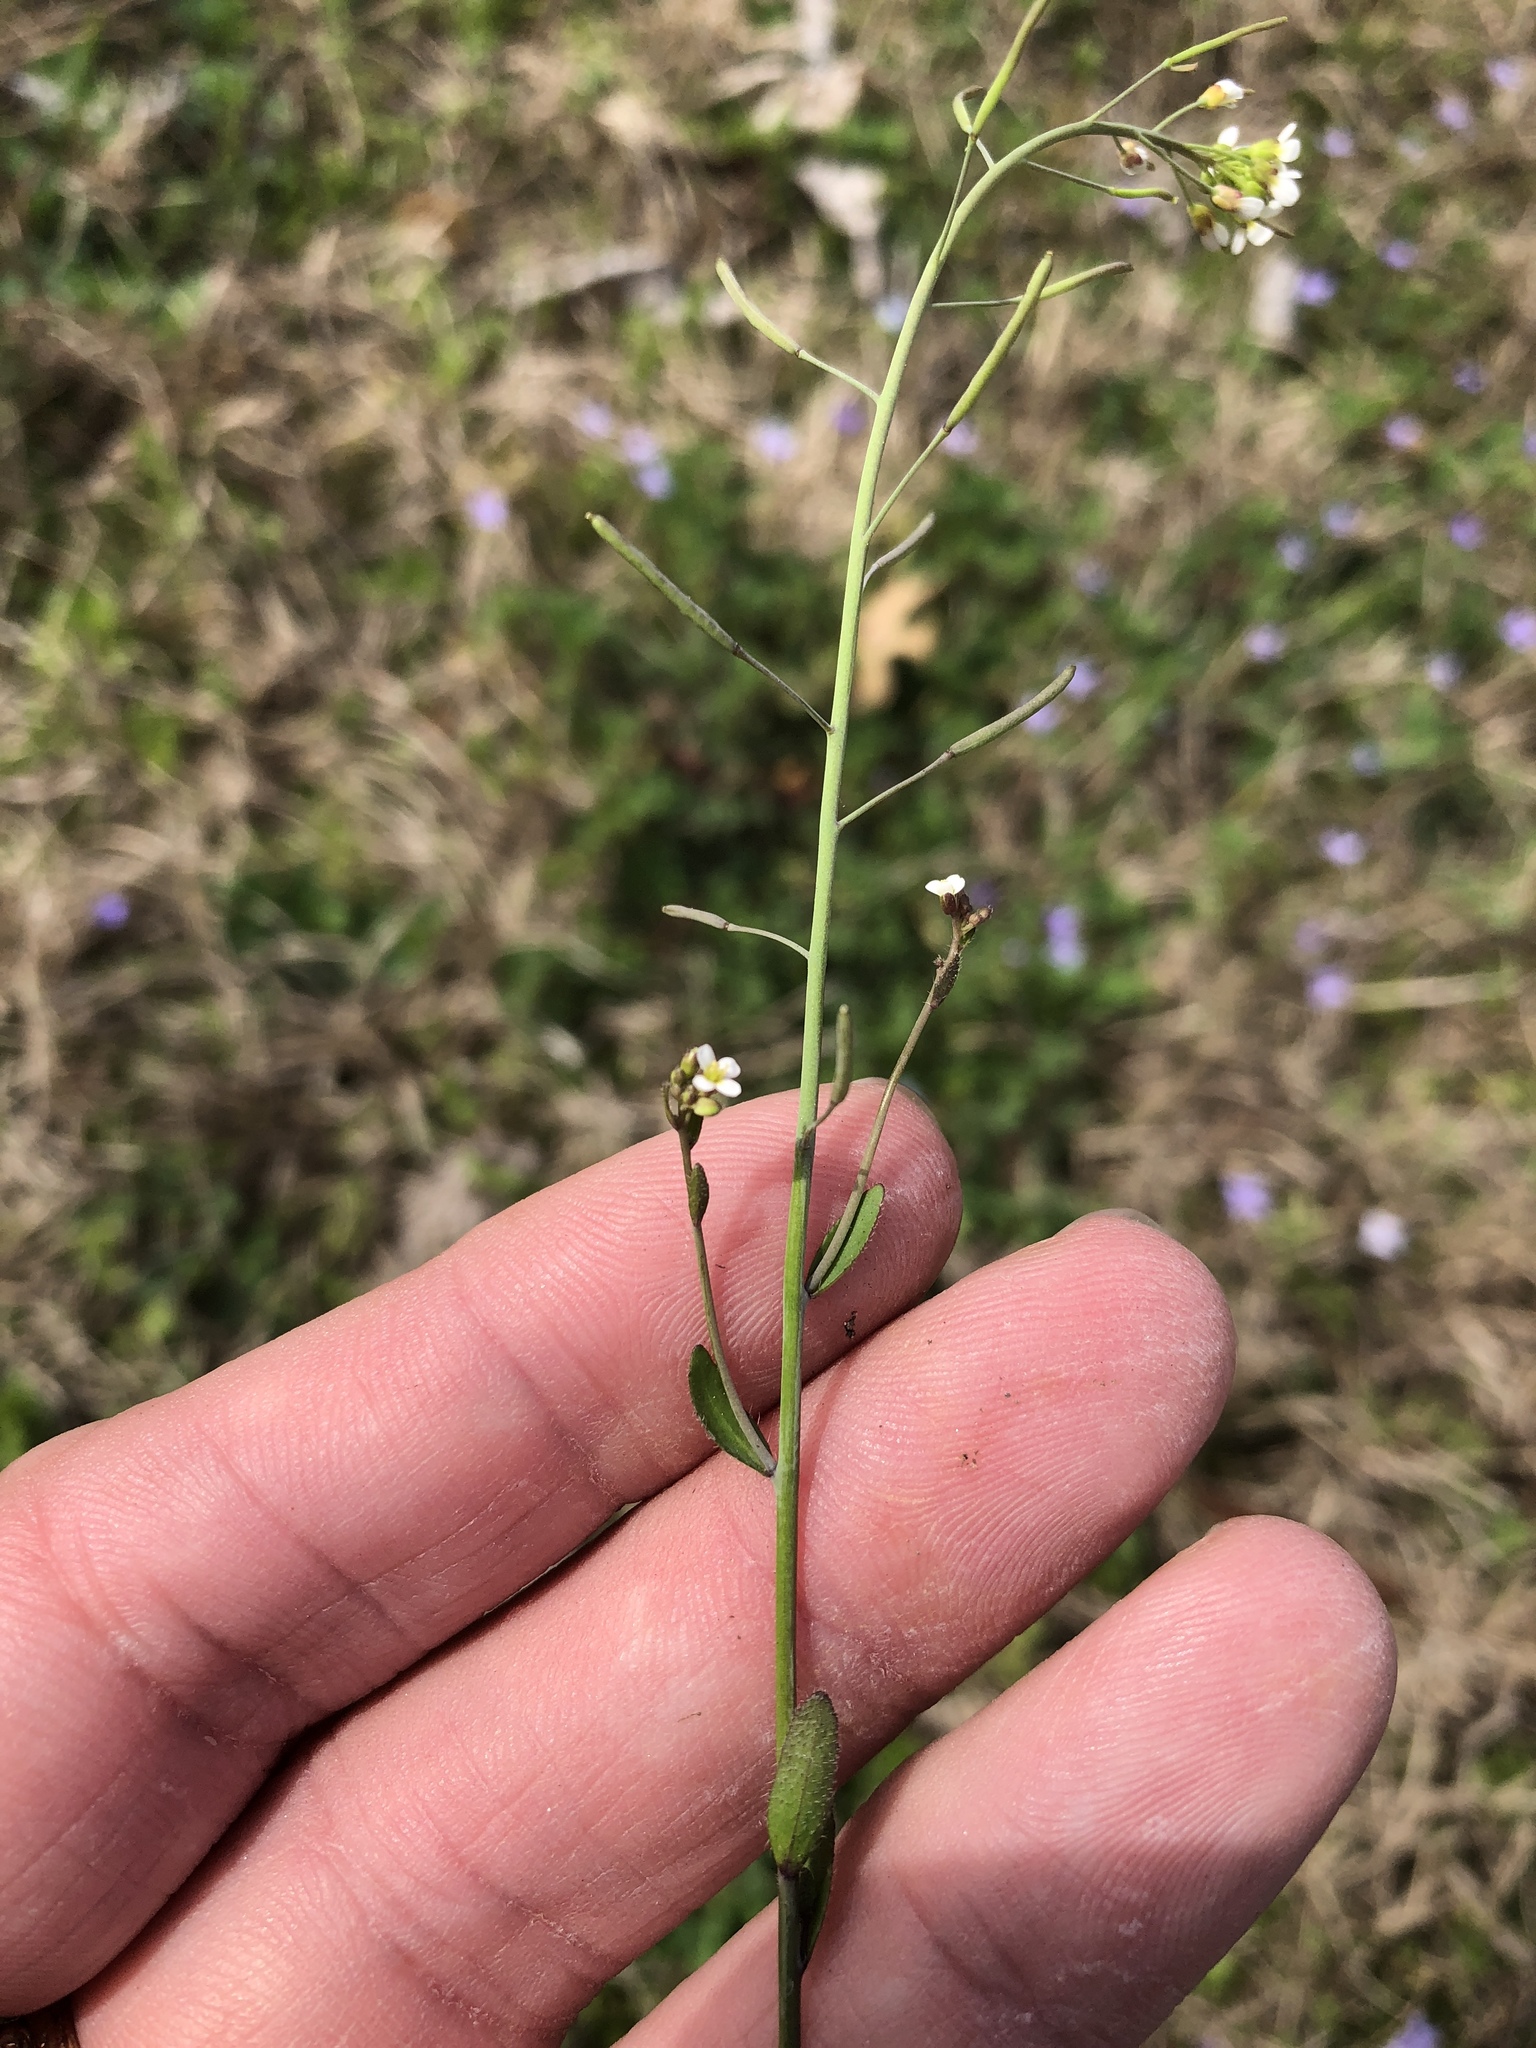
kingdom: Plantae
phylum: Tracheophyta
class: Magnoliopsida
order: Brassicales
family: Brassicaceae
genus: Arabidopsis
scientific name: Arabidopsis thaliana
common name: Thale cress
